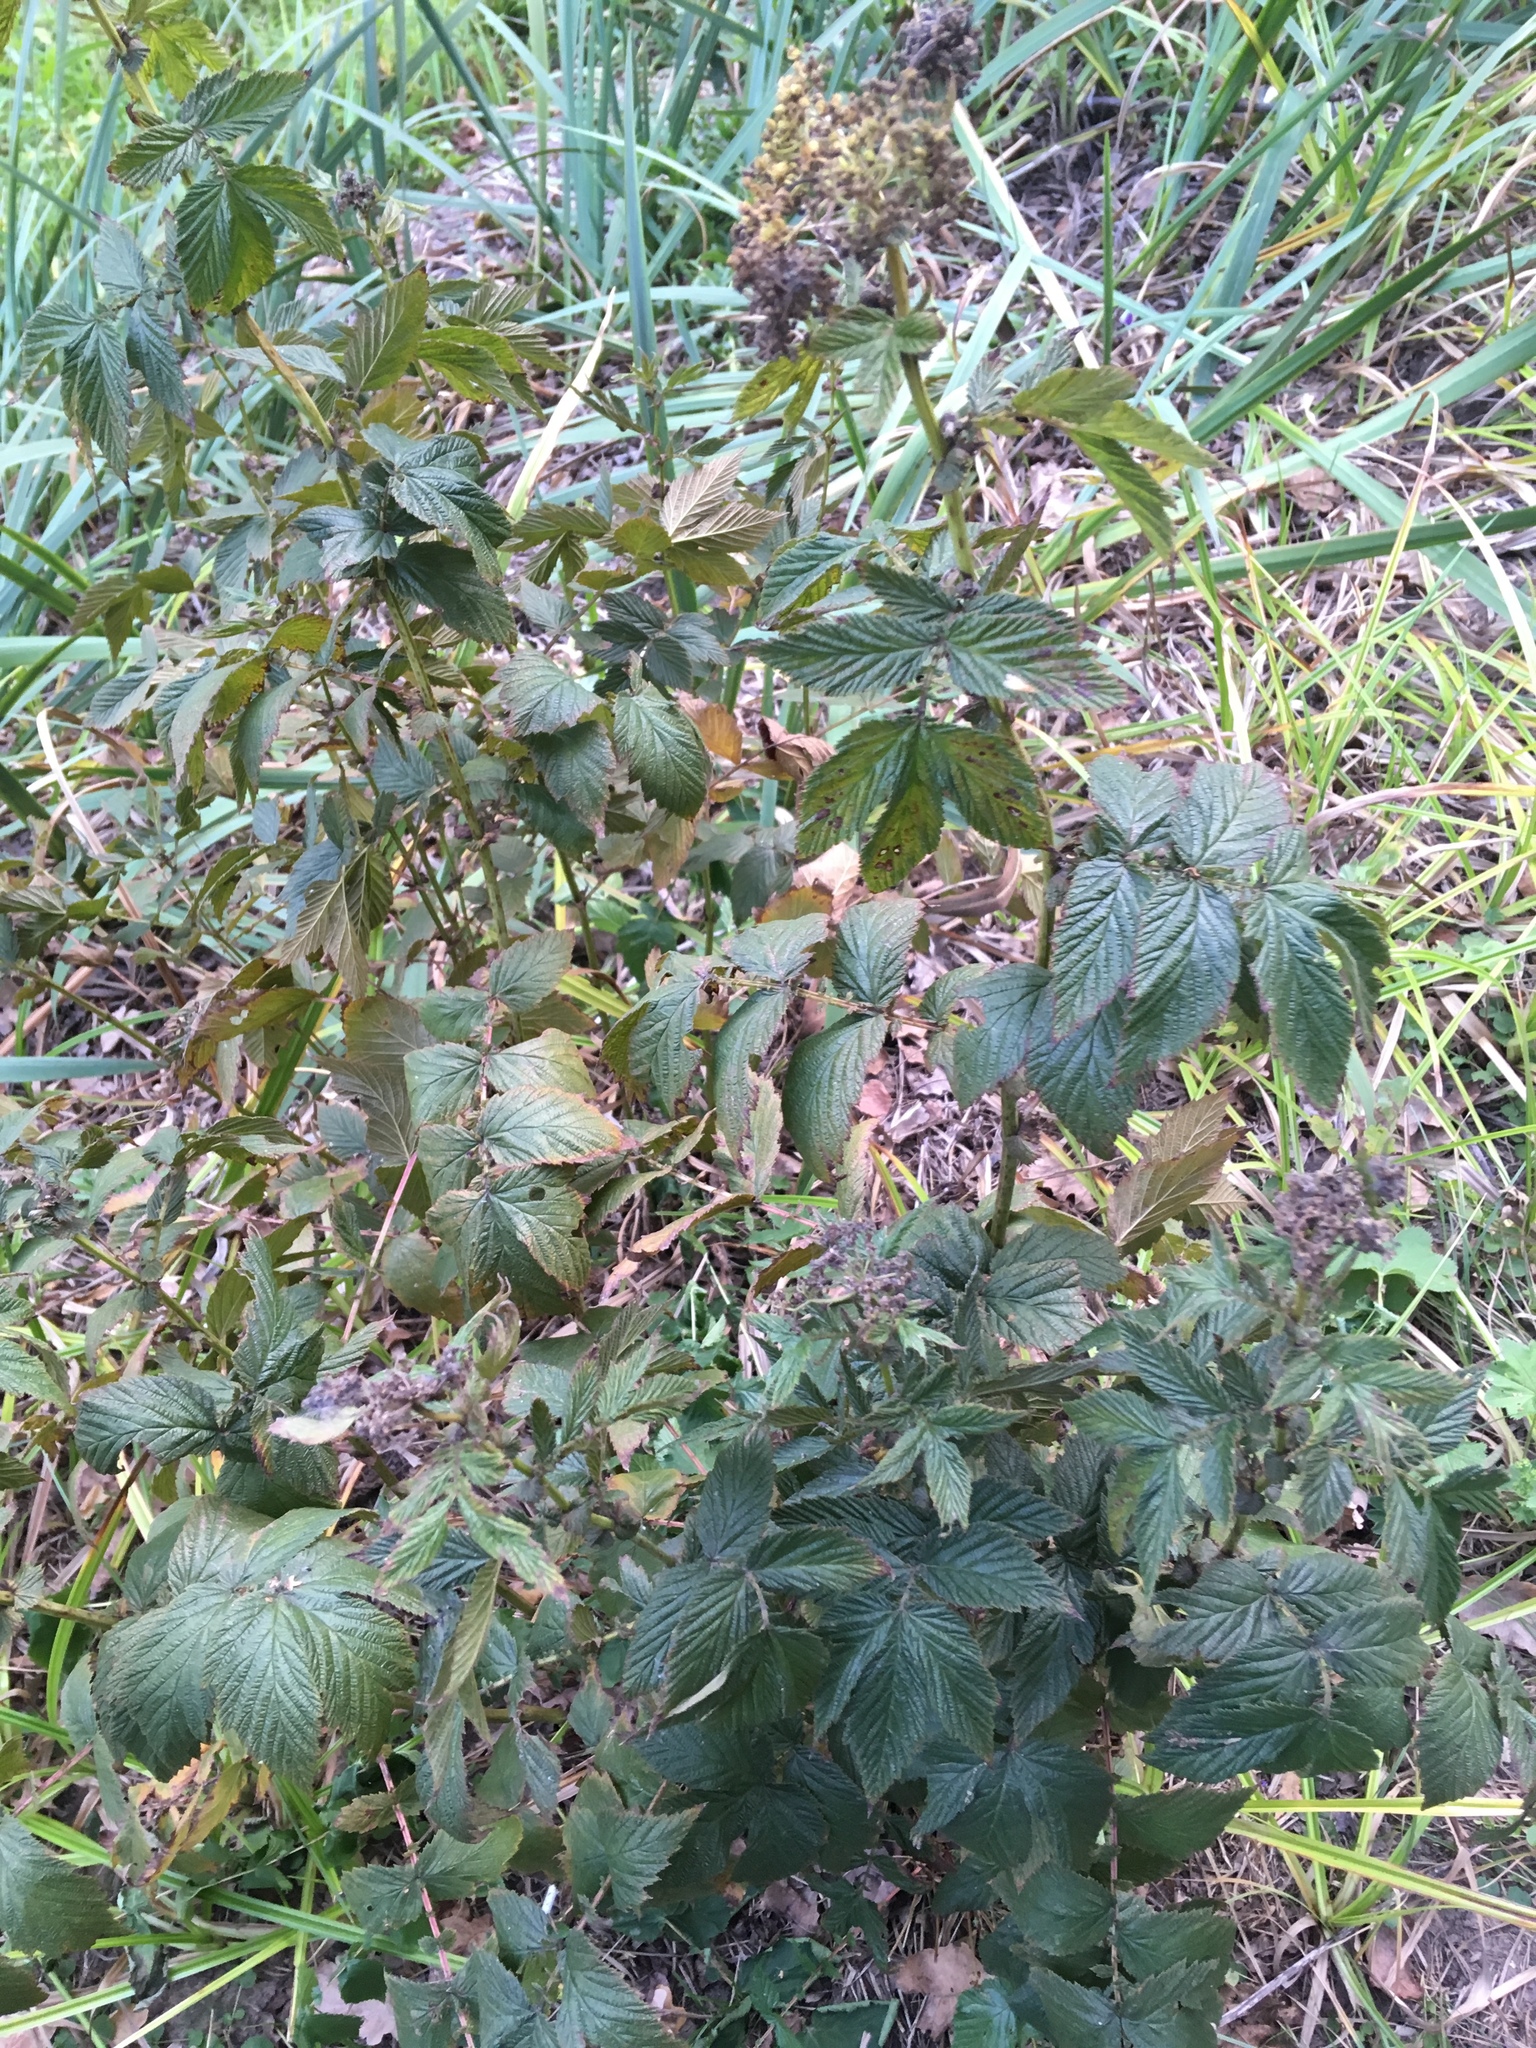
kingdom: Plantae
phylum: Tracheophyta
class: Magnoliopsida
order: Rosales
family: Rosaceae
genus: Filipendula
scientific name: Filipendula ulmaria
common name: Meadowsweet
